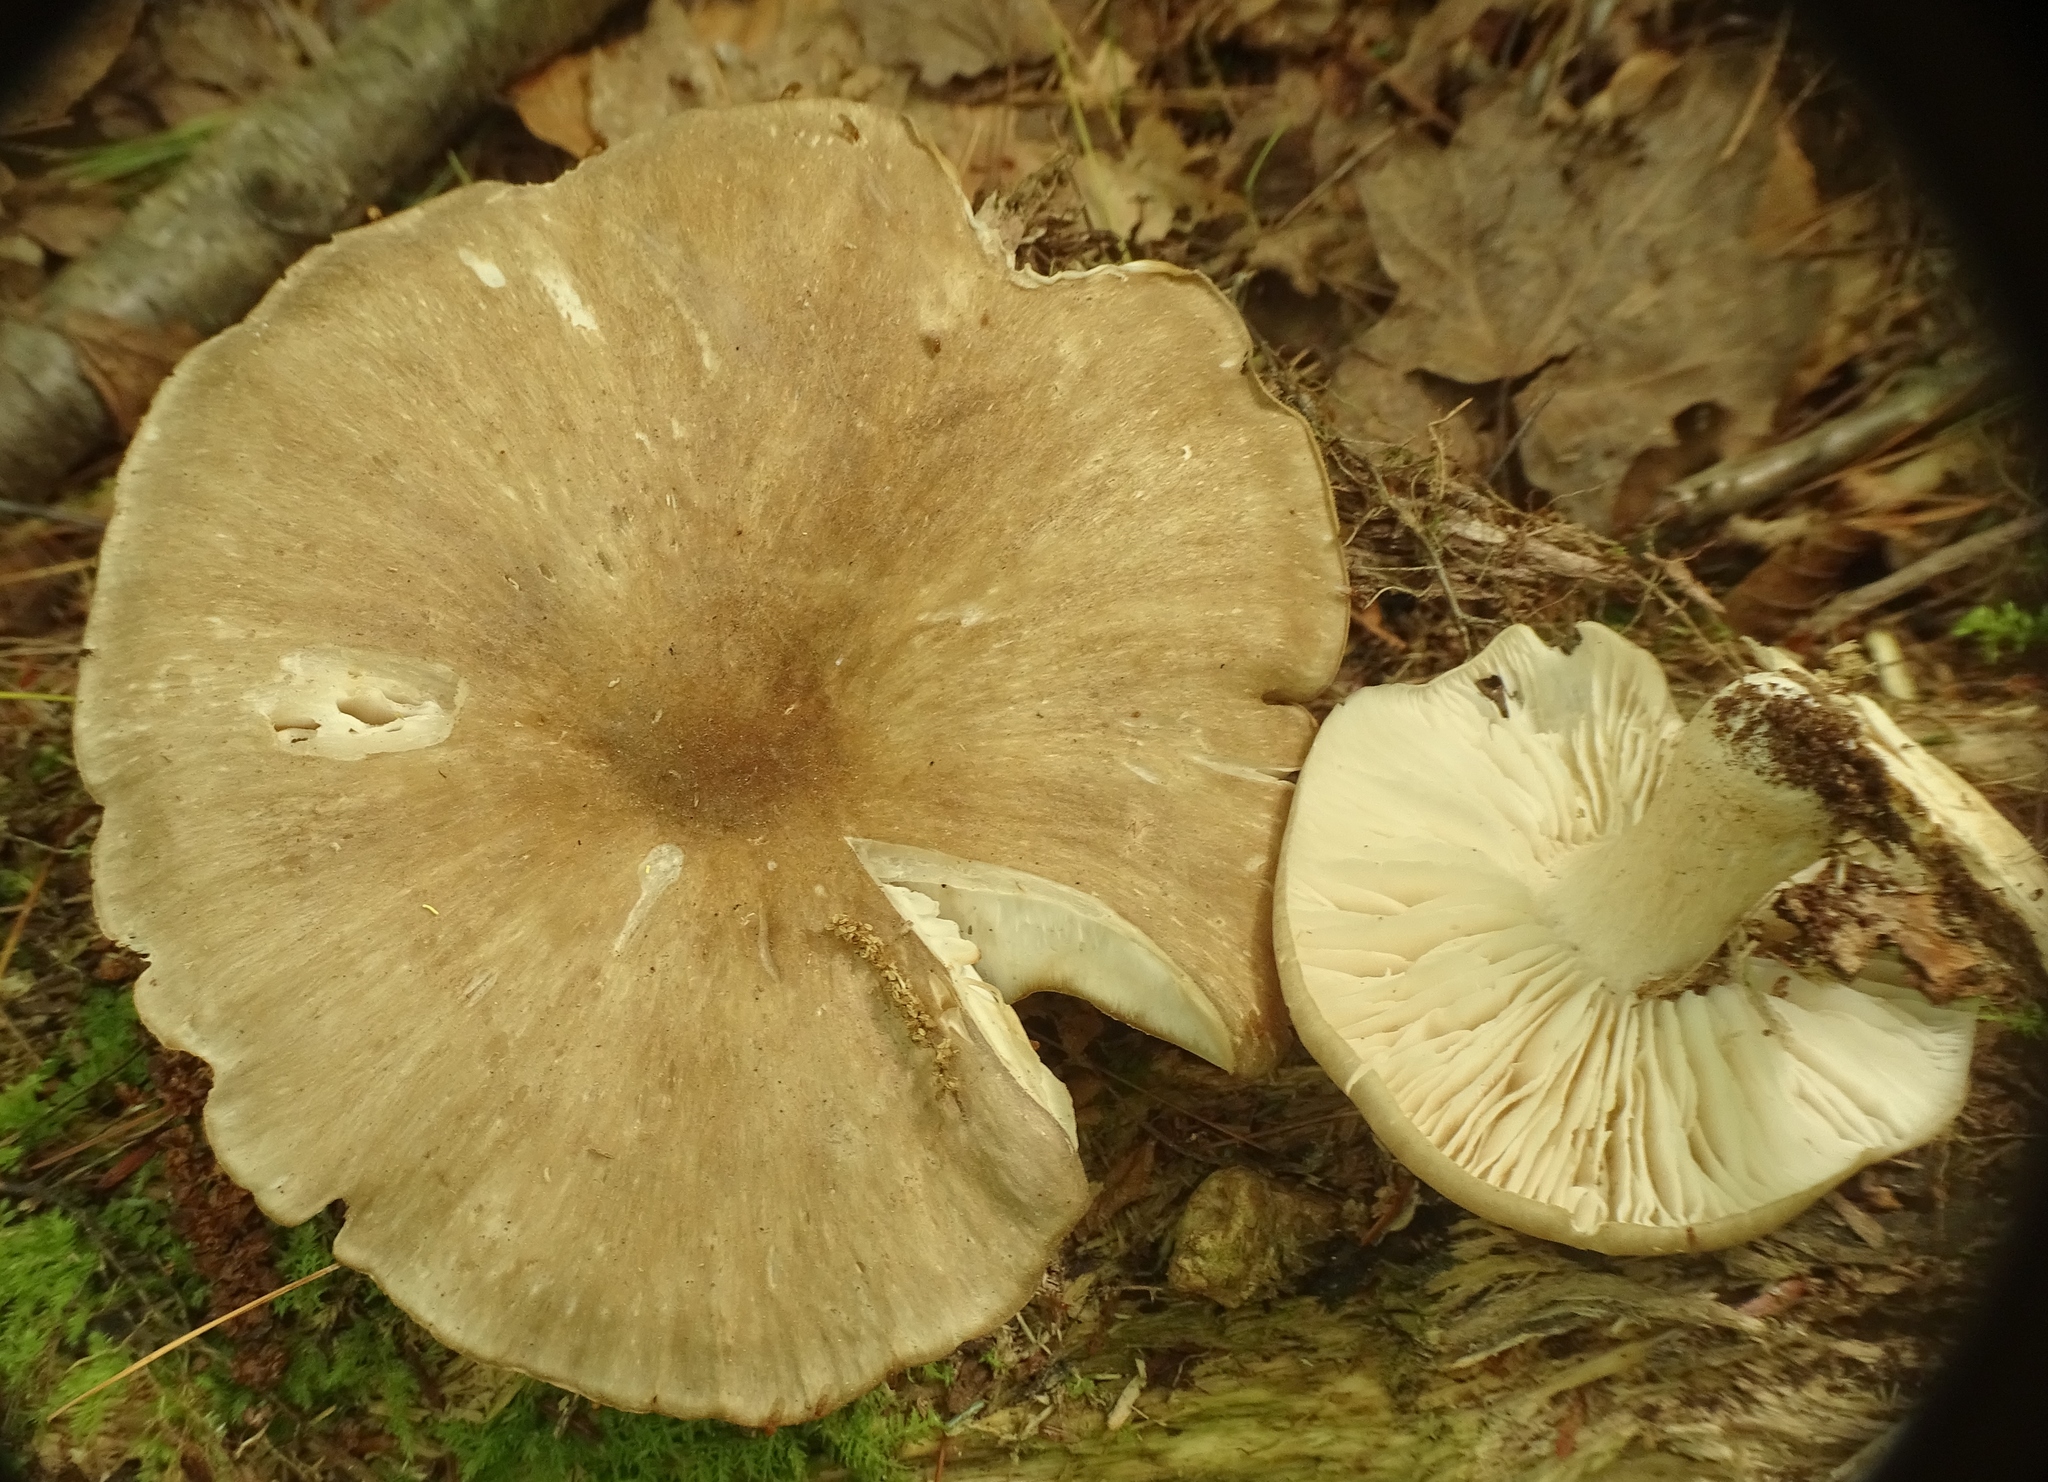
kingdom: Fungi
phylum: Basidiomycota
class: Agaricomycetes
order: Agaricales
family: Tricholomataceae
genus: Megacollybia
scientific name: Megacollybia rodmanii
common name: Eastern american platterful mushroom
